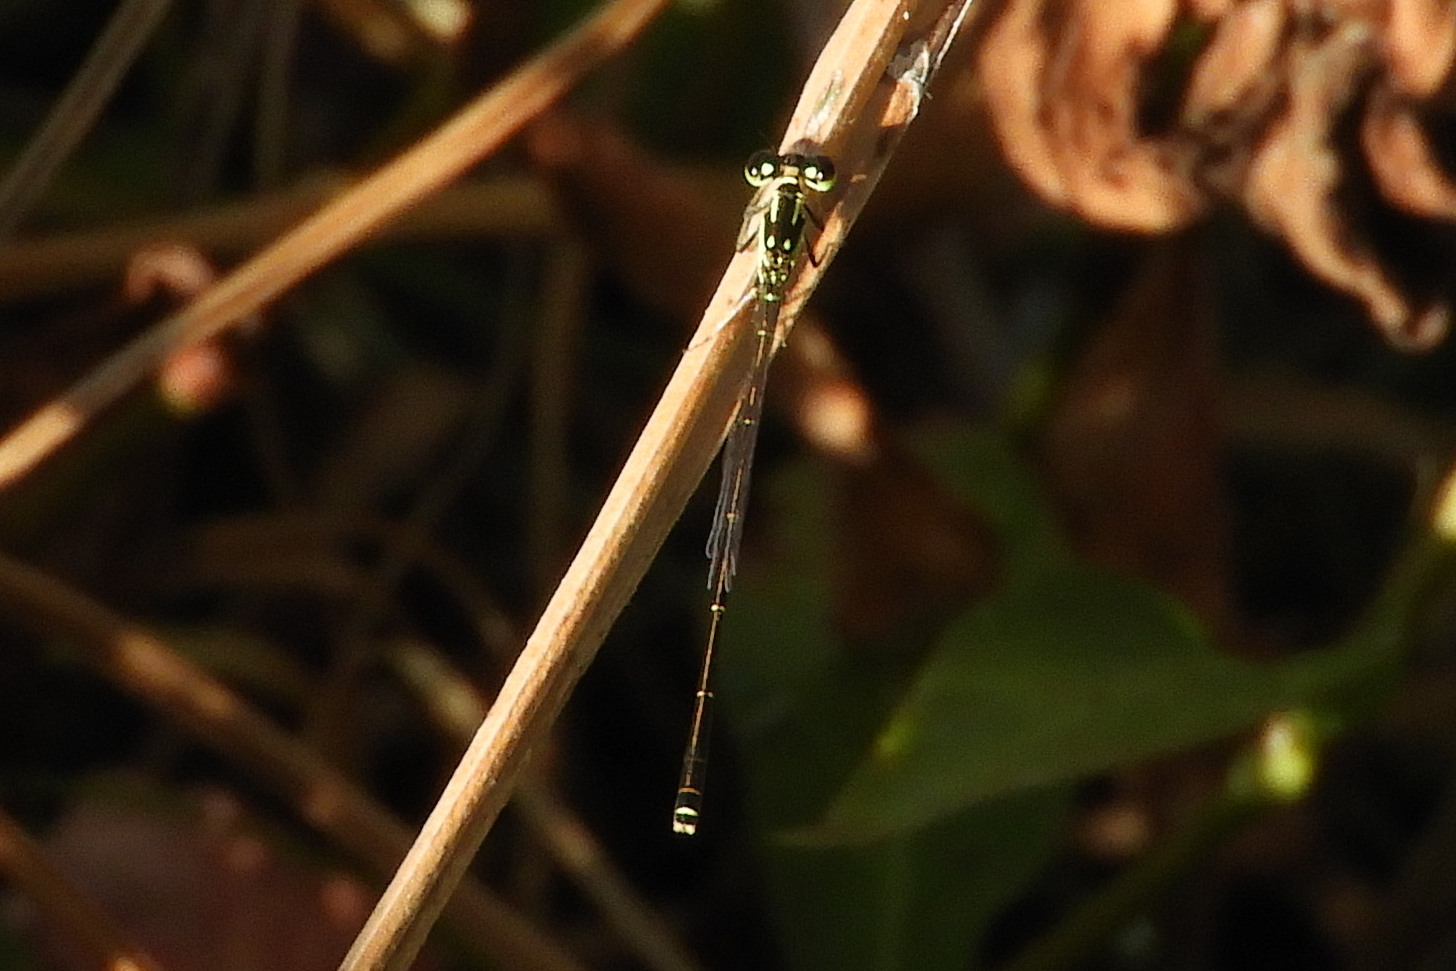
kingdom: Animalia
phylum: Arthropoda
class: Insecta
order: Odonata
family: Coenagrionidae
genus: Ischnura
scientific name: Ischnura posita
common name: Fragile forktail
